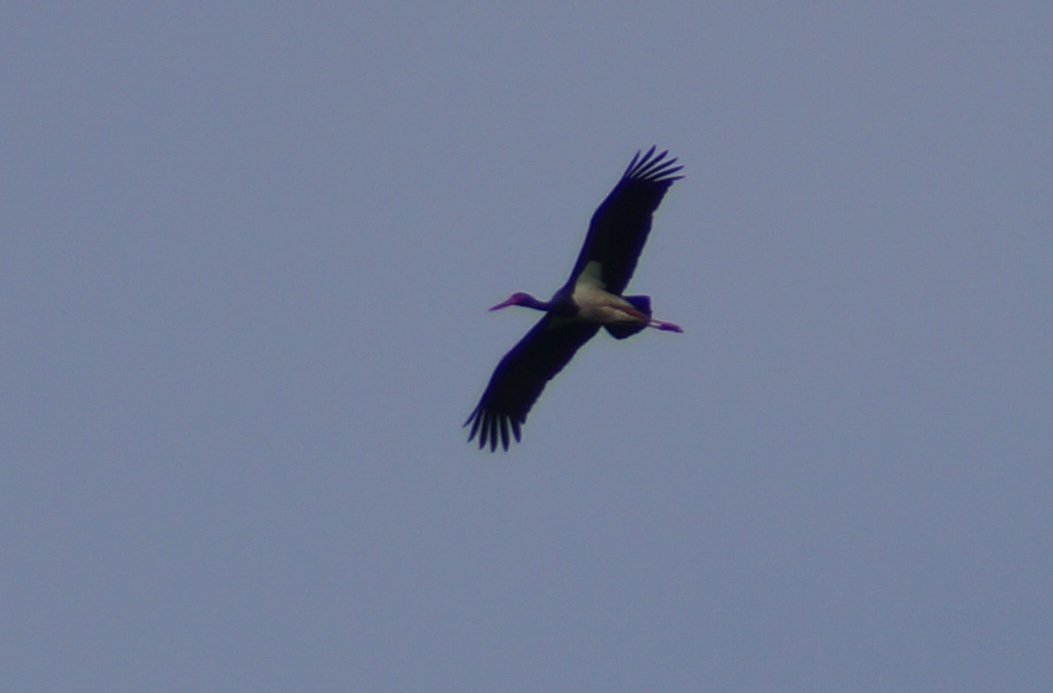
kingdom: Animalia
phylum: Chordata
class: Aves
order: Ciconiiformes
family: Ciconiidae
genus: Ciconia
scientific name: Ciconia nigra
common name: Black stork
